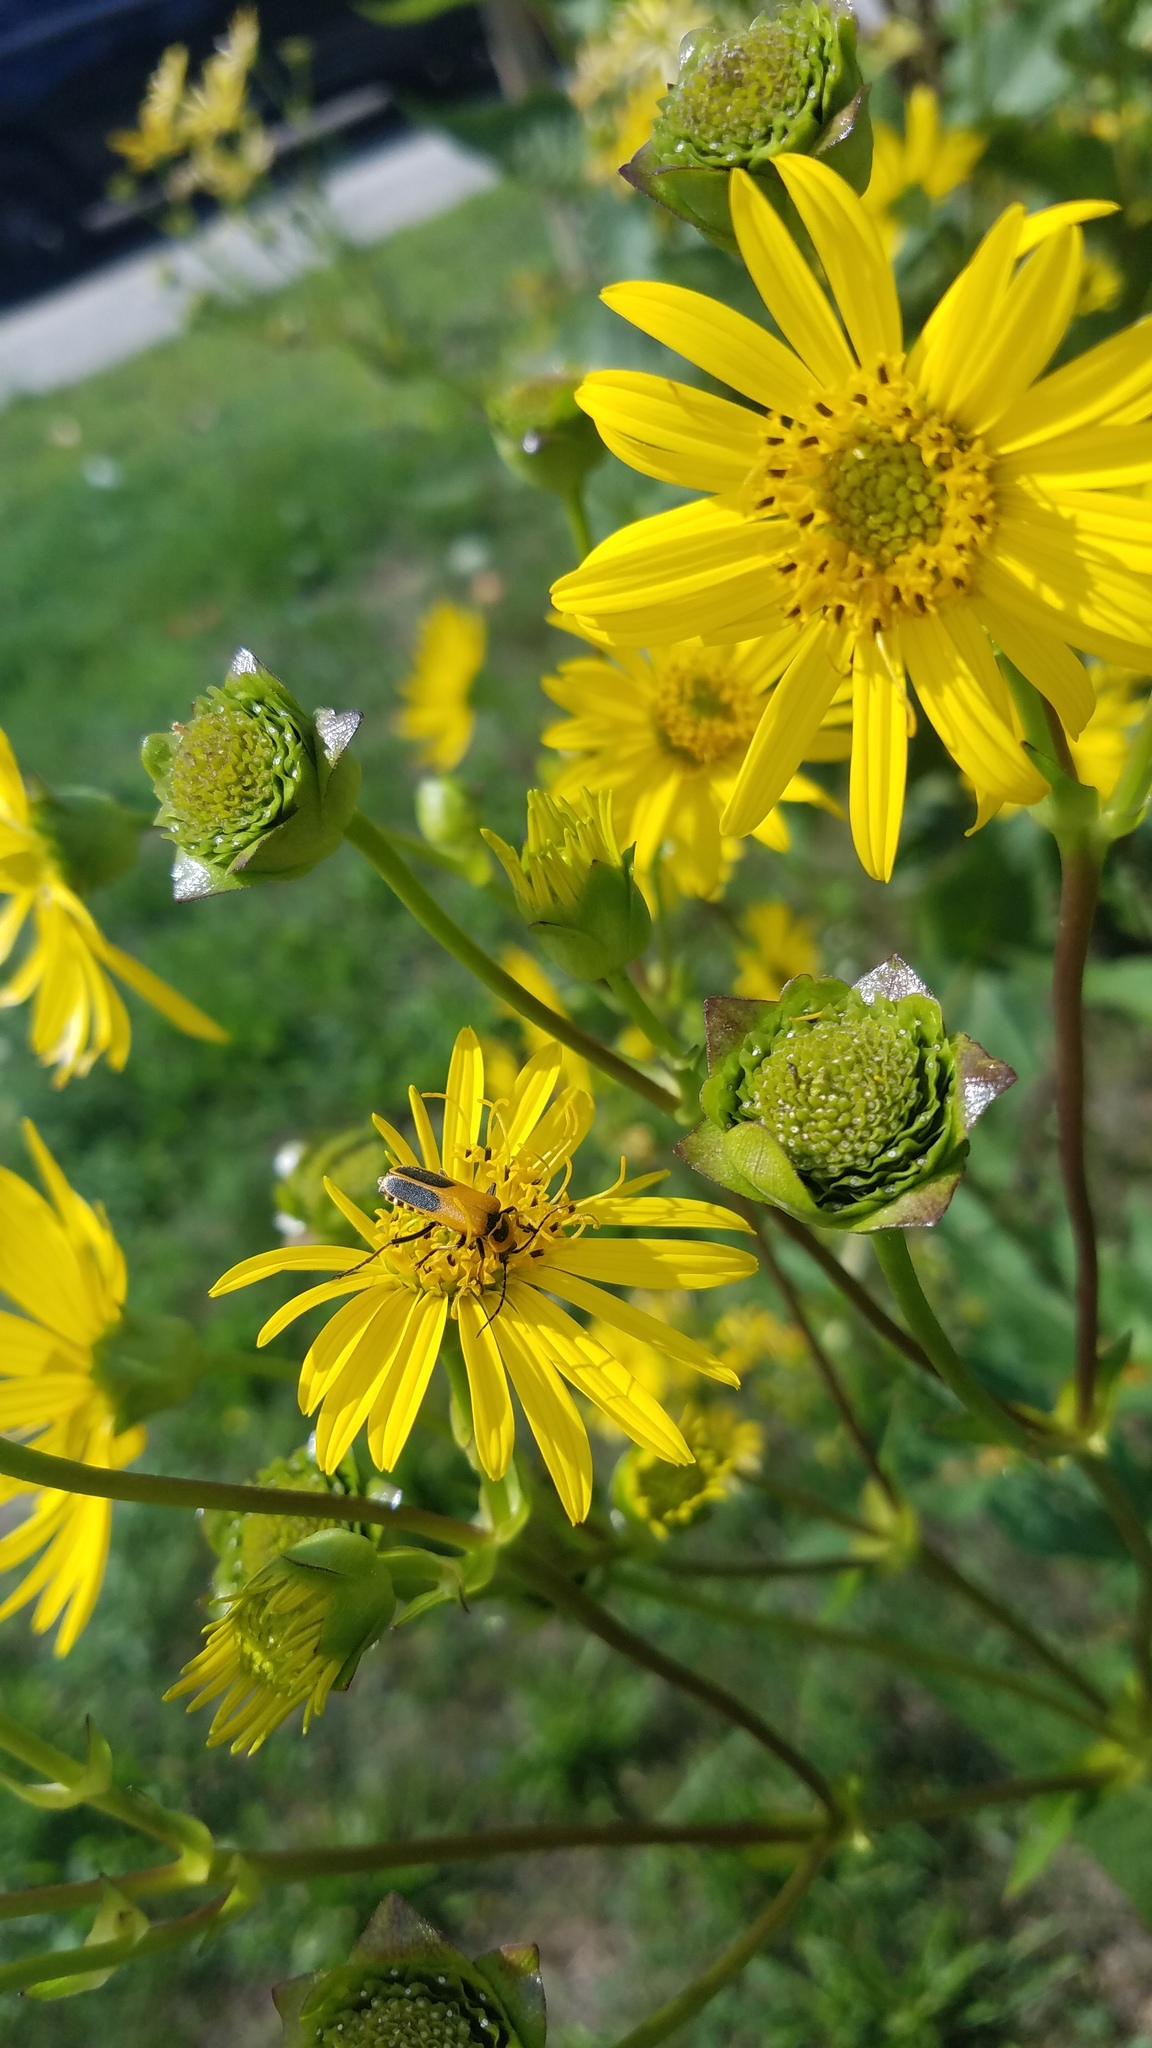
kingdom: Animalia
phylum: Arthropoda
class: Insecta
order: Coleoptera
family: Cantharidae
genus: Chauliognathus
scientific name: Chauliognathus pensylvanicus
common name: Goldenrod soldier beetle
